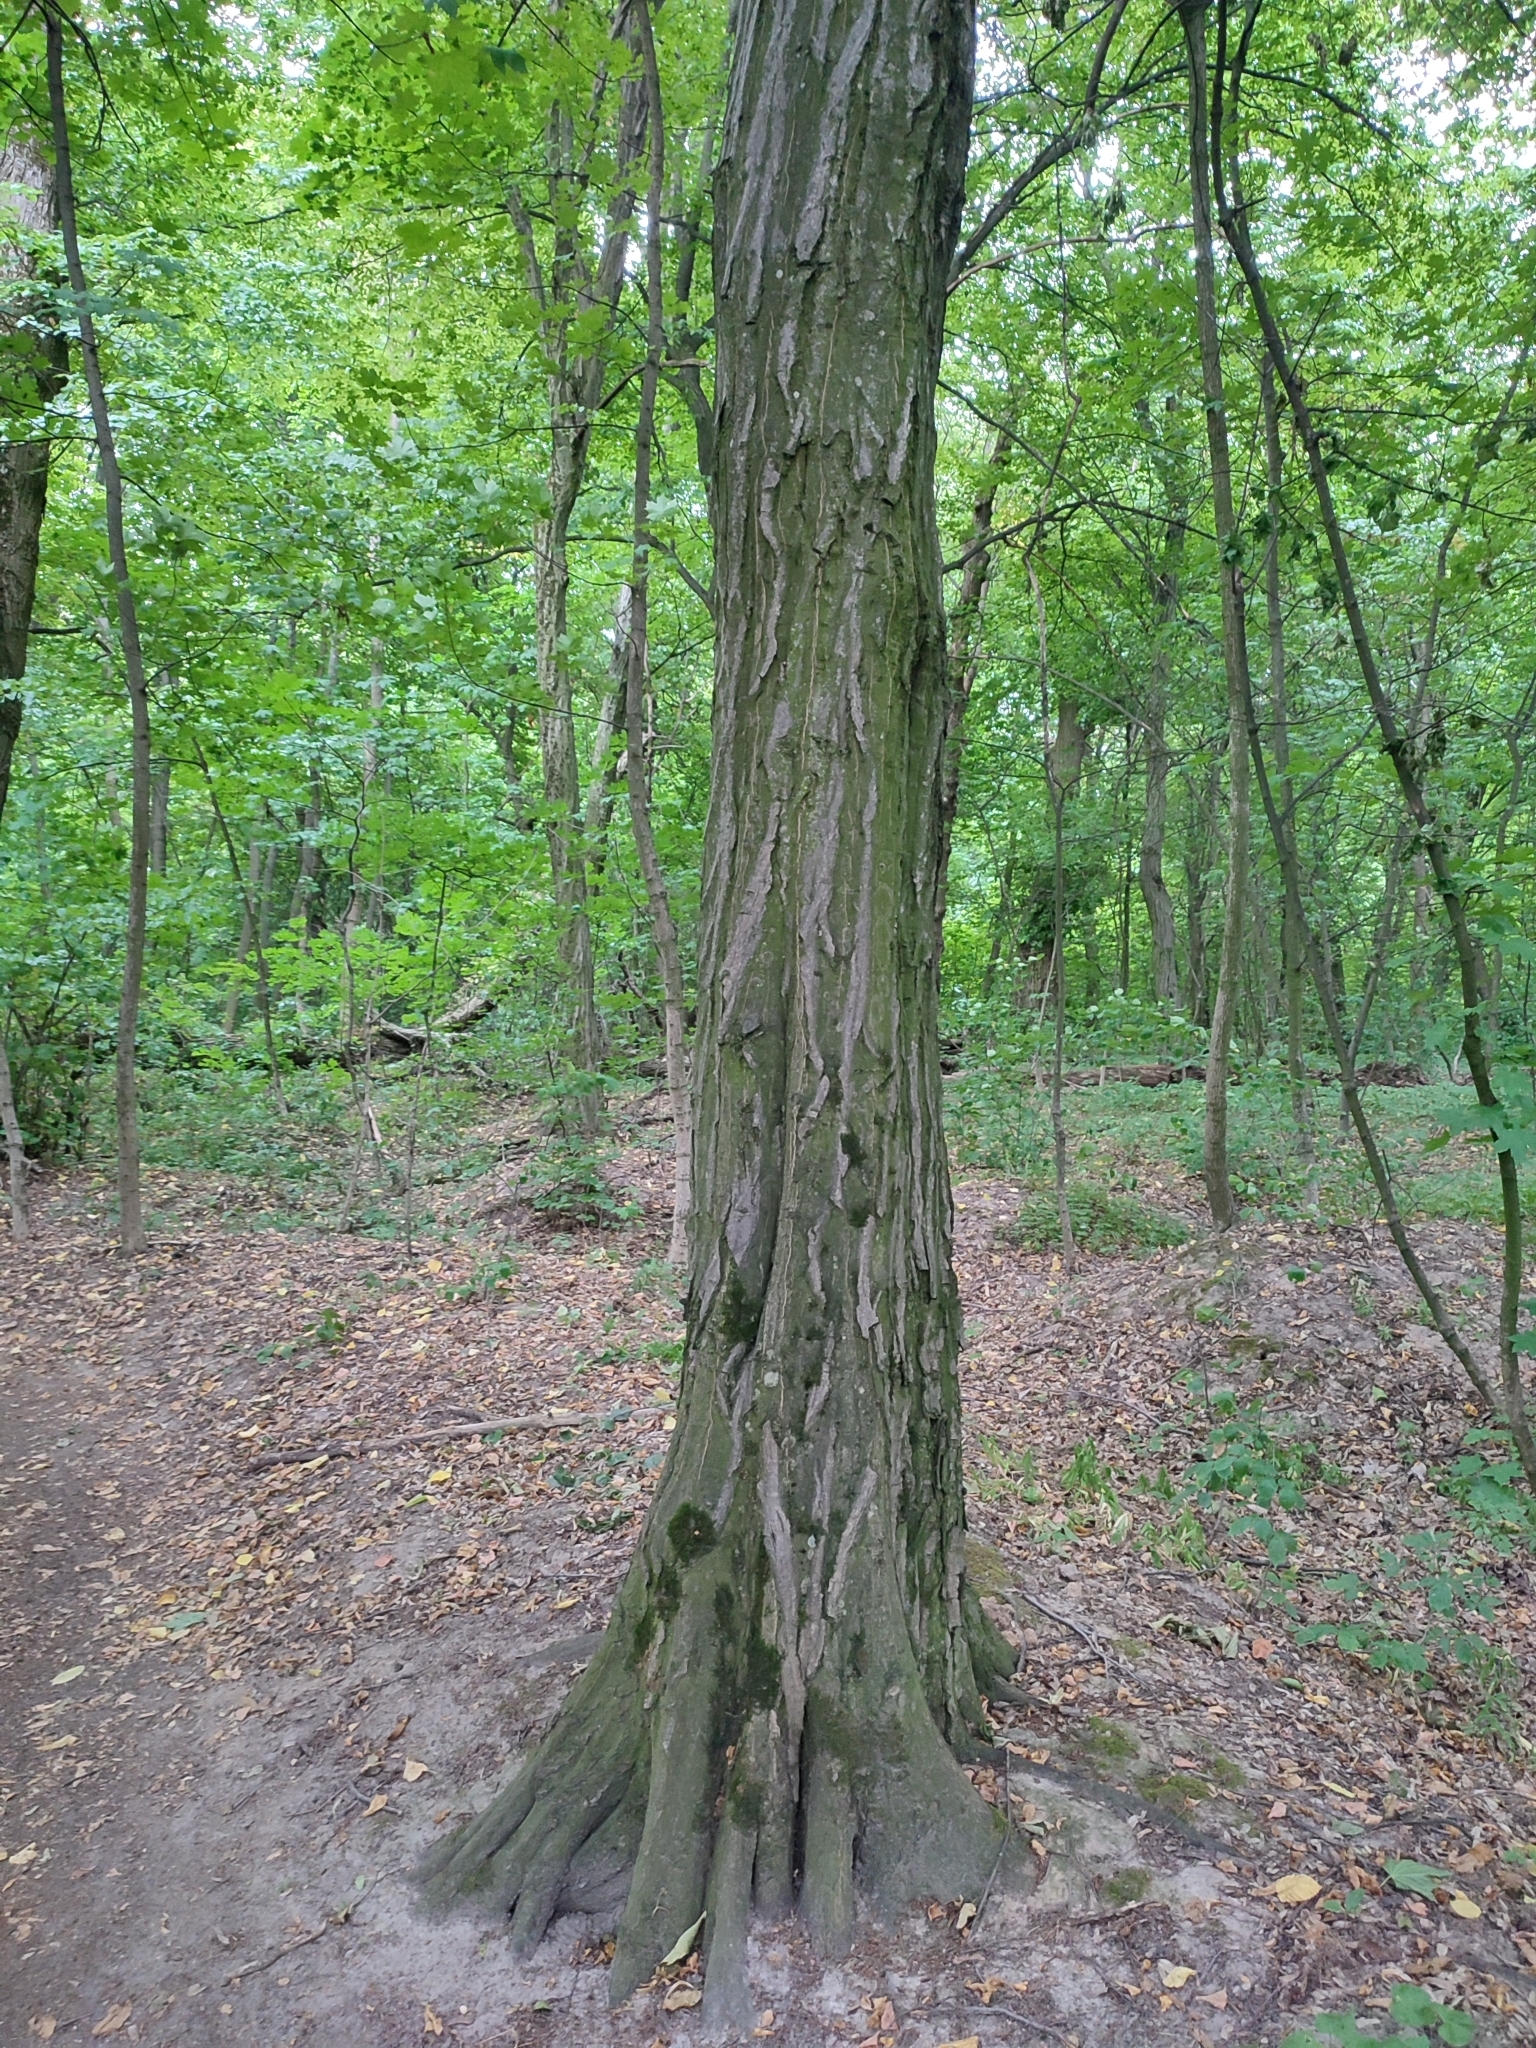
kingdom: Plantae
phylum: Tracheophyta
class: Magnoliopsida
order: Fagales
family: Betulaceae
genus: Carpinus
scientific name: Carpinus betulus
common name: Hornbeam
